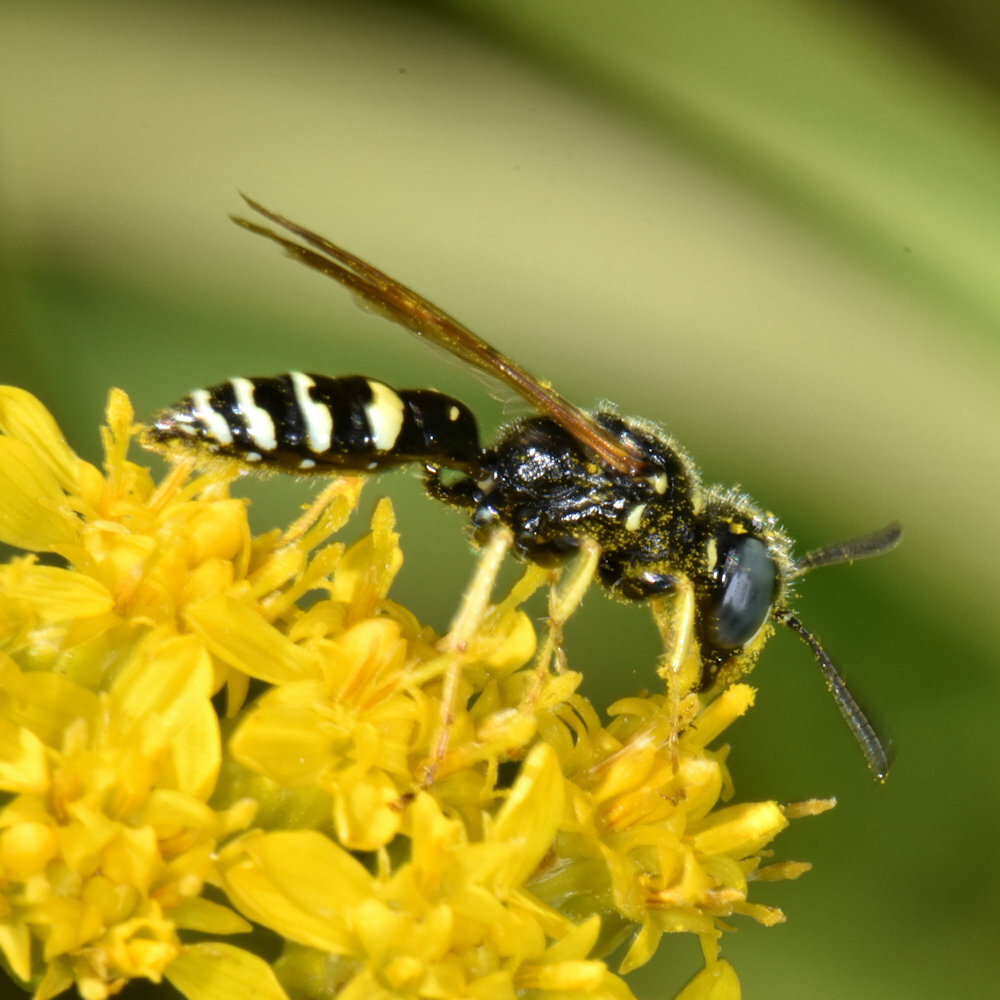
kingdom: Animalia
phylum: Arthropoda
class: Insecta
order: Hymenoptera
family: Crabronidae
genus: Philanthus
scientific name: Philanthus bilunatus
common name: Two moons beewolf
